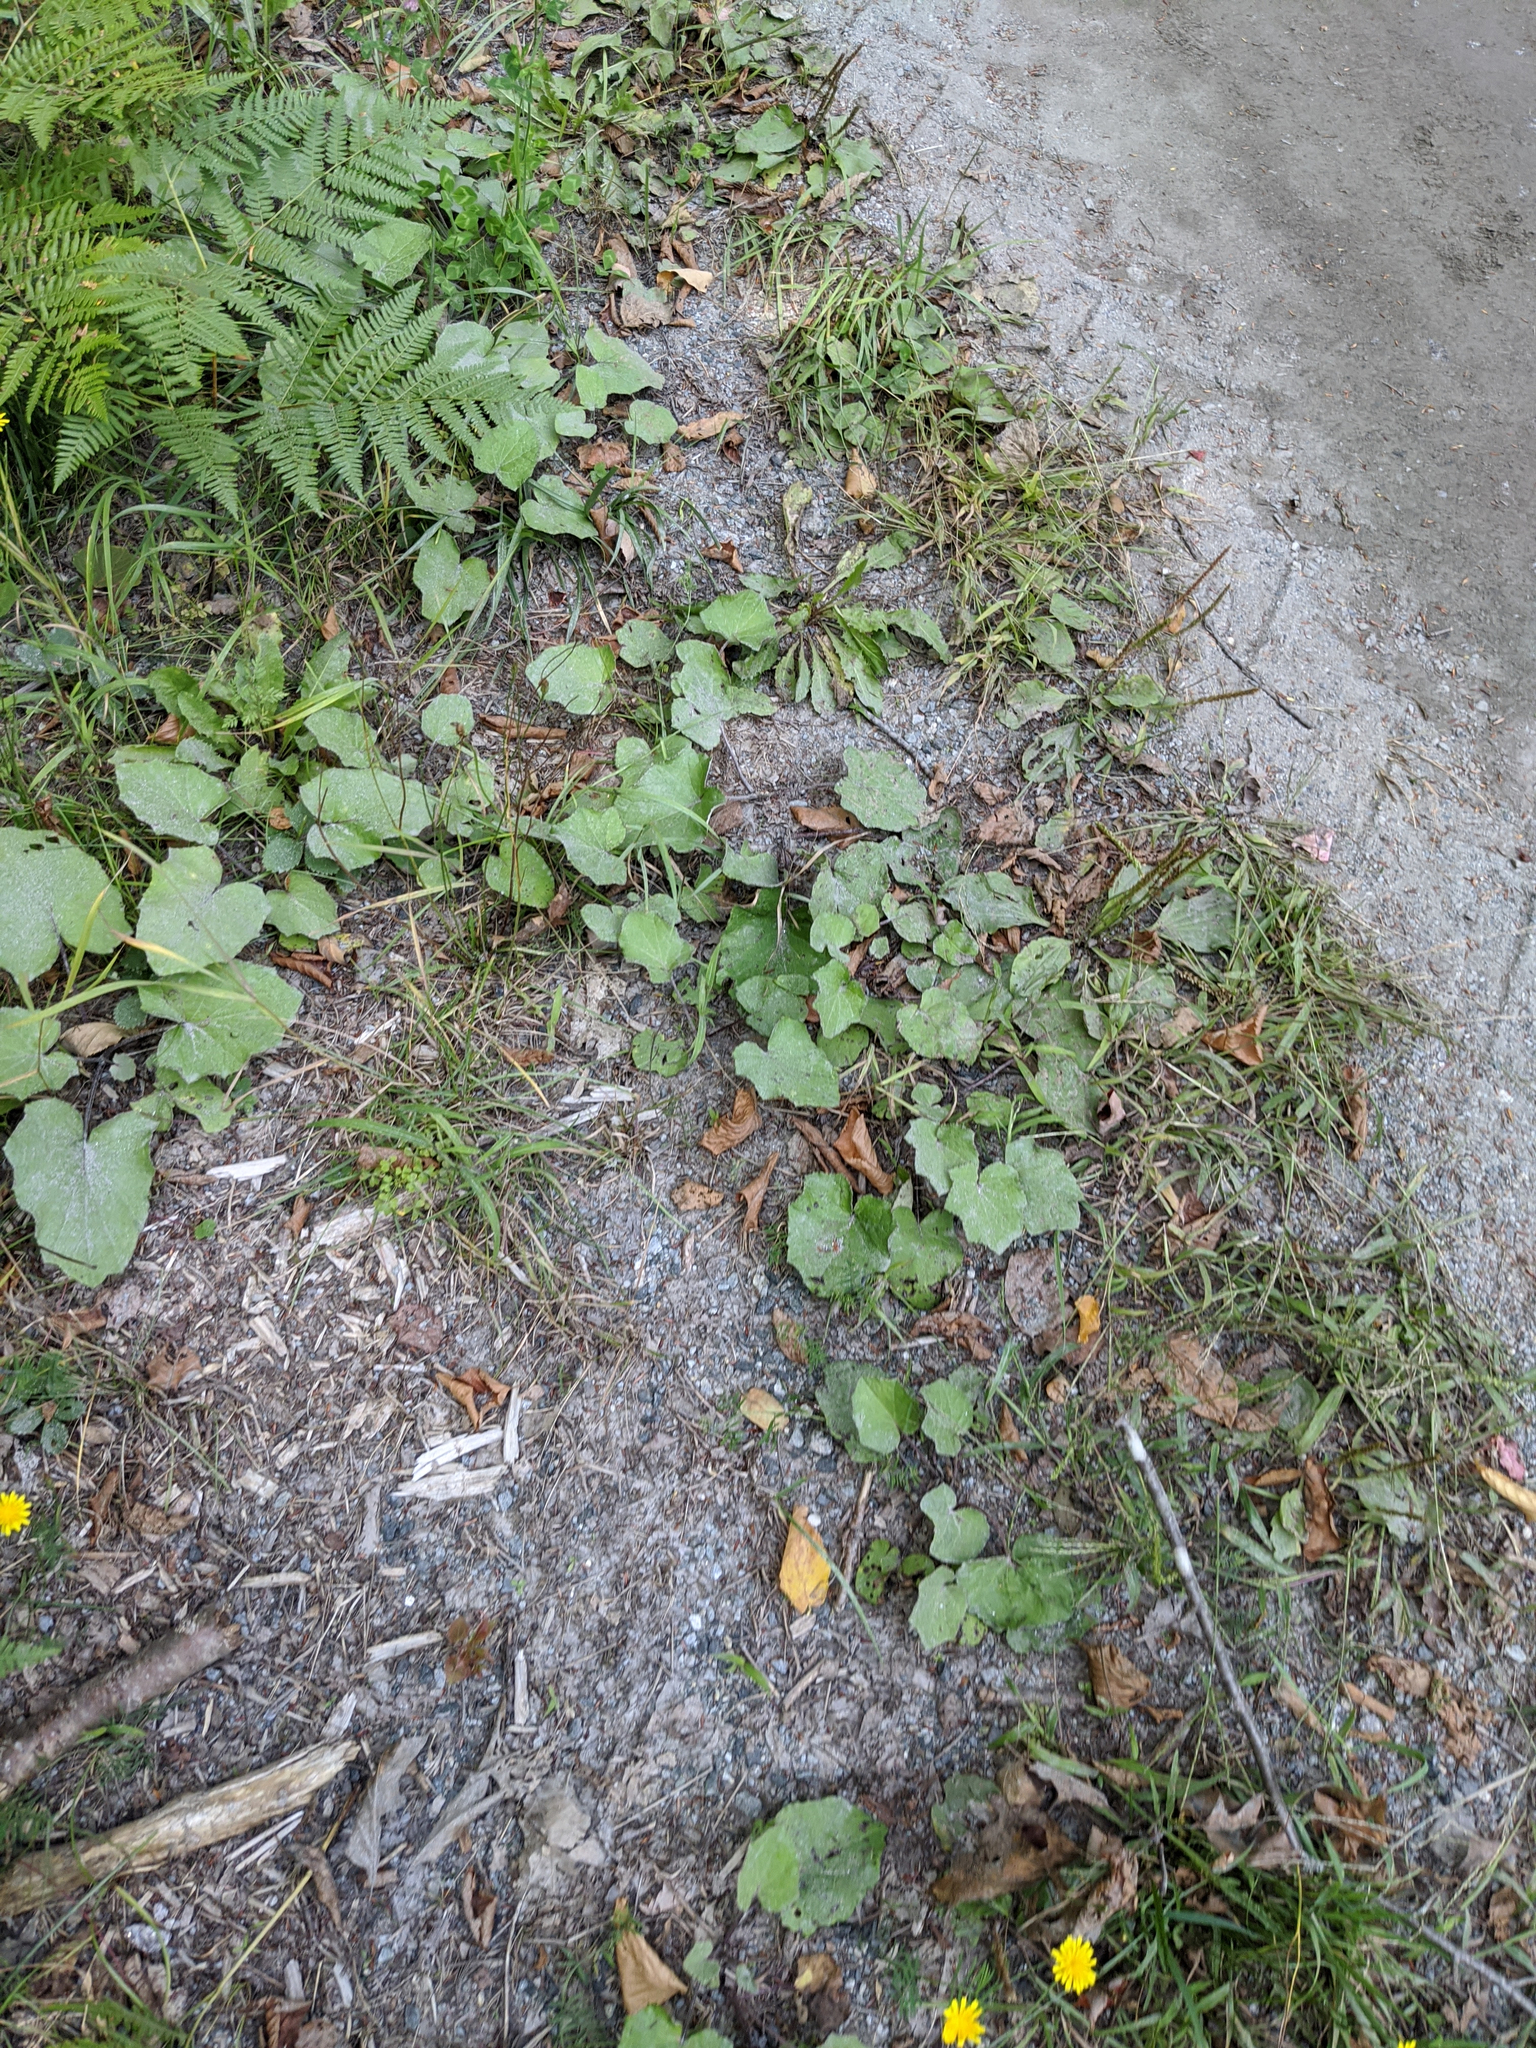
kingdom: Plantae
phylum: Tracheophyta
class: Magnoliopsida
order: Asterales
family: Asteraceae
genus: Tussilago
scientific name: Tussilago farfara
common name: Coltsfoot
